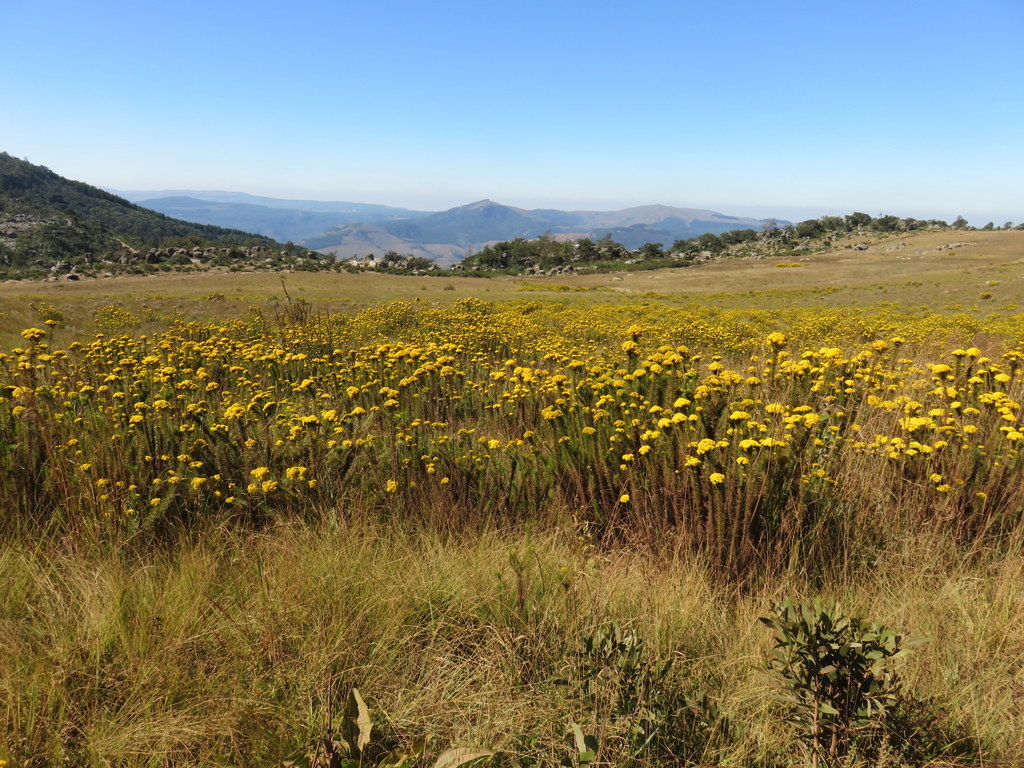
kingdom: Plantae
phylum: Tracheophyta
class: Magnoliopsida
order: Asterales
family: Asteraceae
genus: Phymaspermum
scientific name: Phymaspermum acerosum
